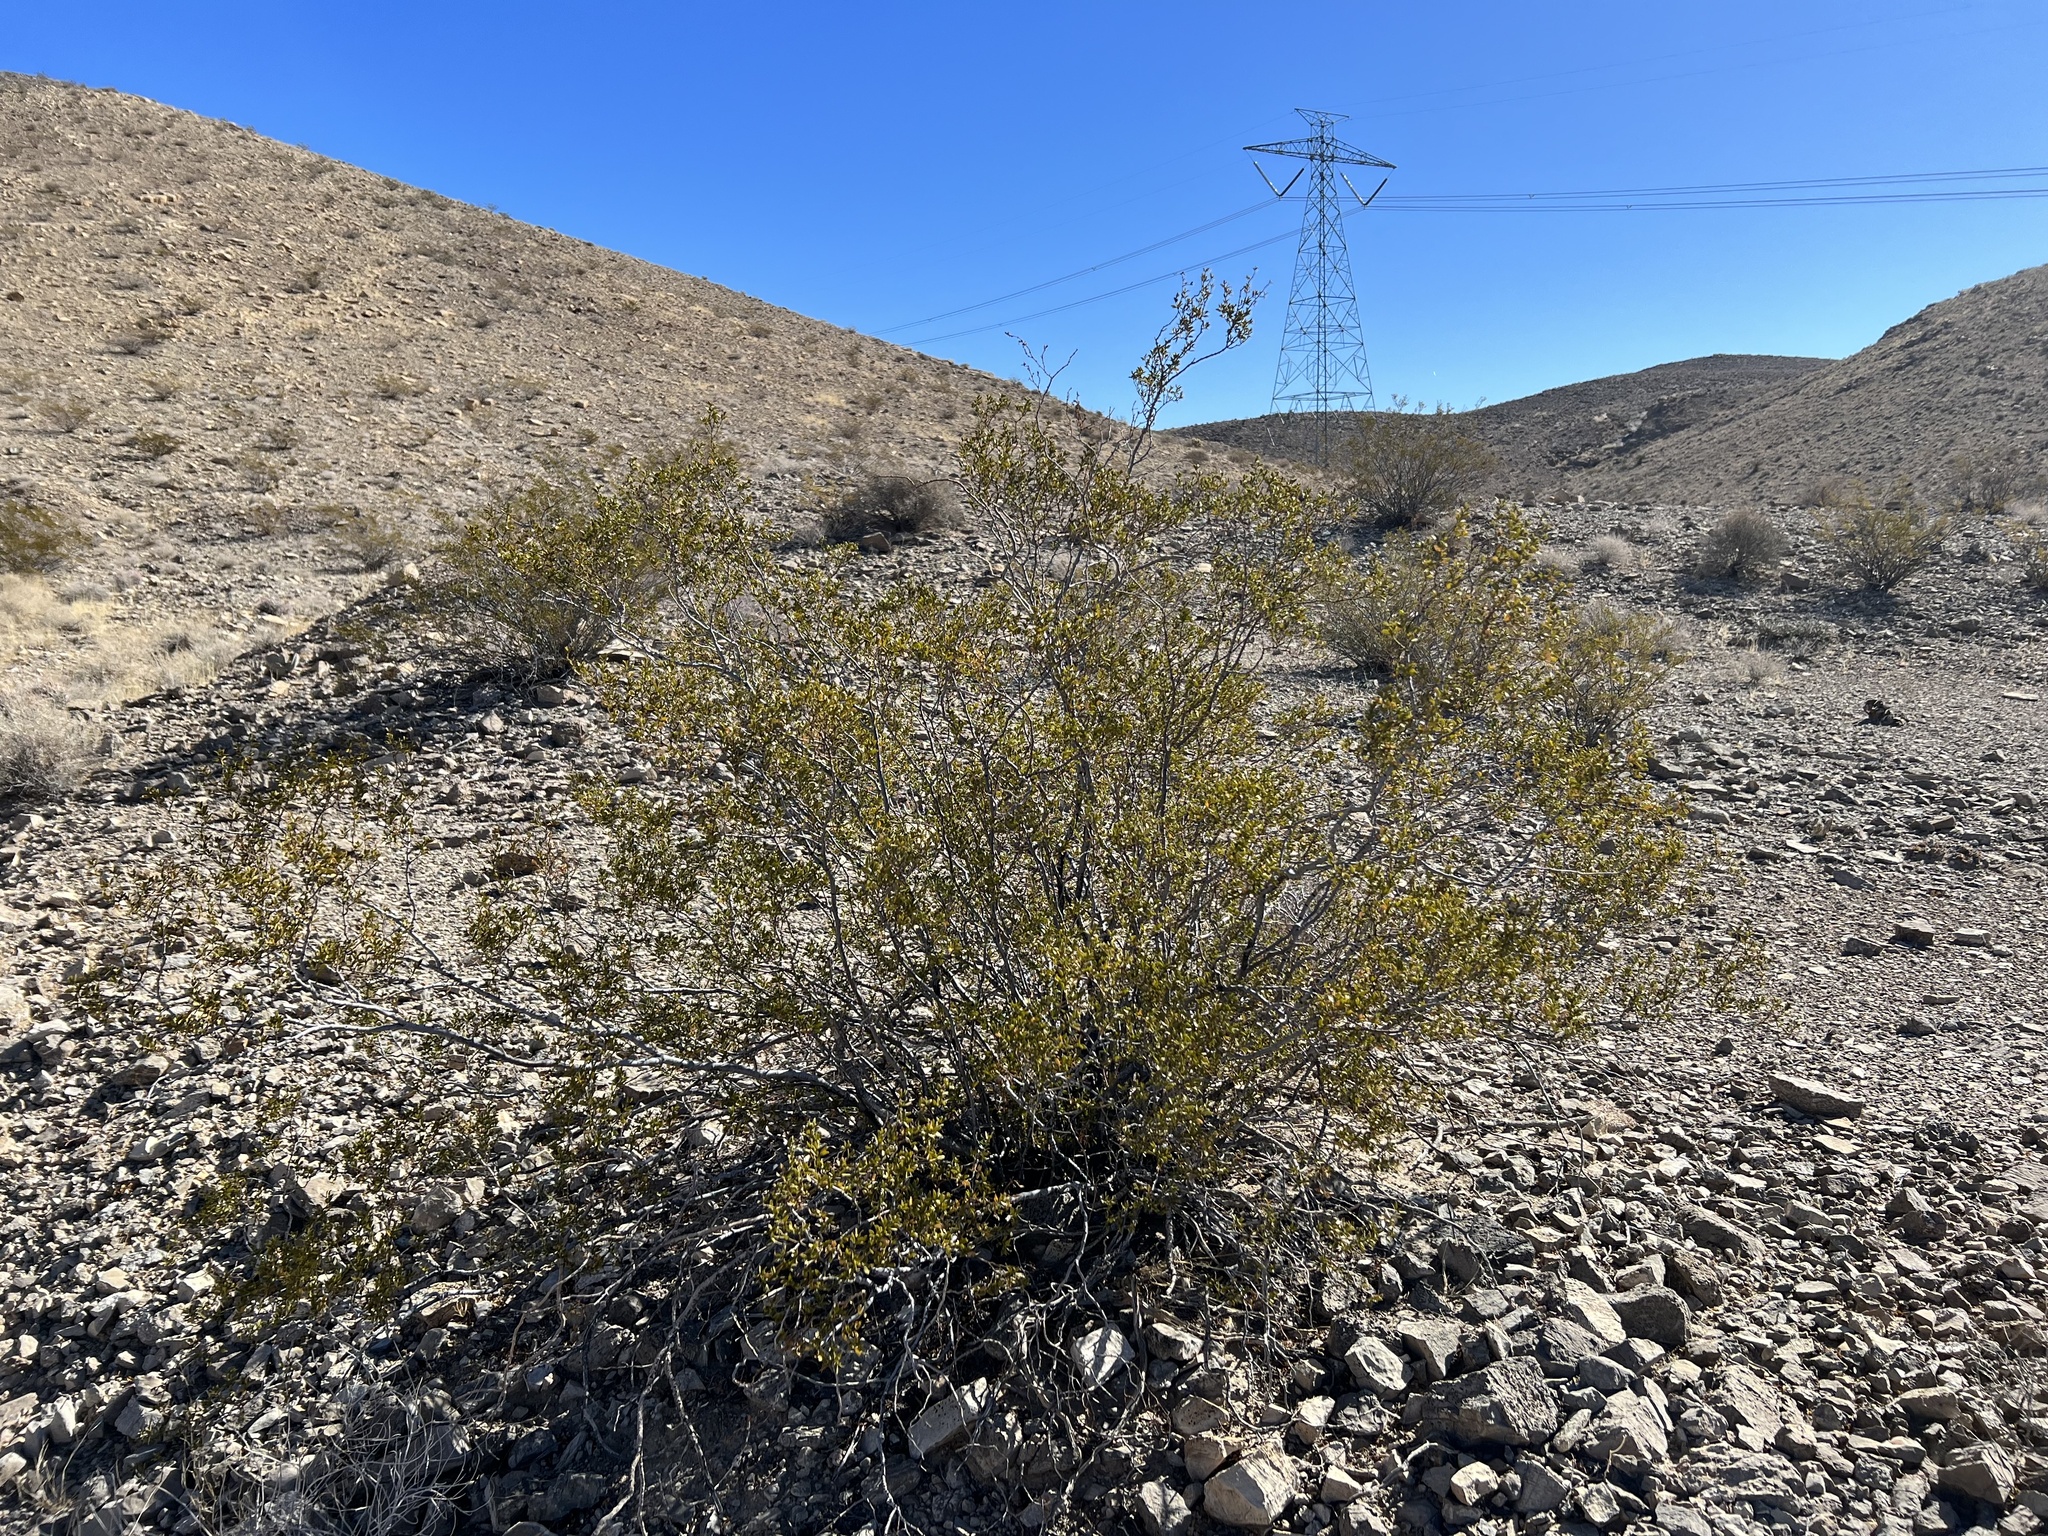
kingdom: Plantae
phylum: Tracheophyta
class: Magnoliopsida
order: Zygophyllales
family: Zygophyllaceae
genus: Larrea
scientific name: Larrea tridentata
